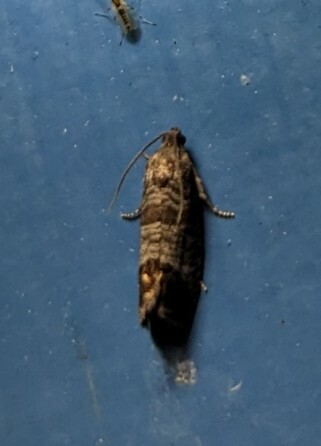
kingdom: Animalia
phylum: Arthropoda
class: Insecta
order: Lepidoptera
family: Tortricidae
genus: Cydia
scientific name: Cydia pomonella
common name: Codling moth
